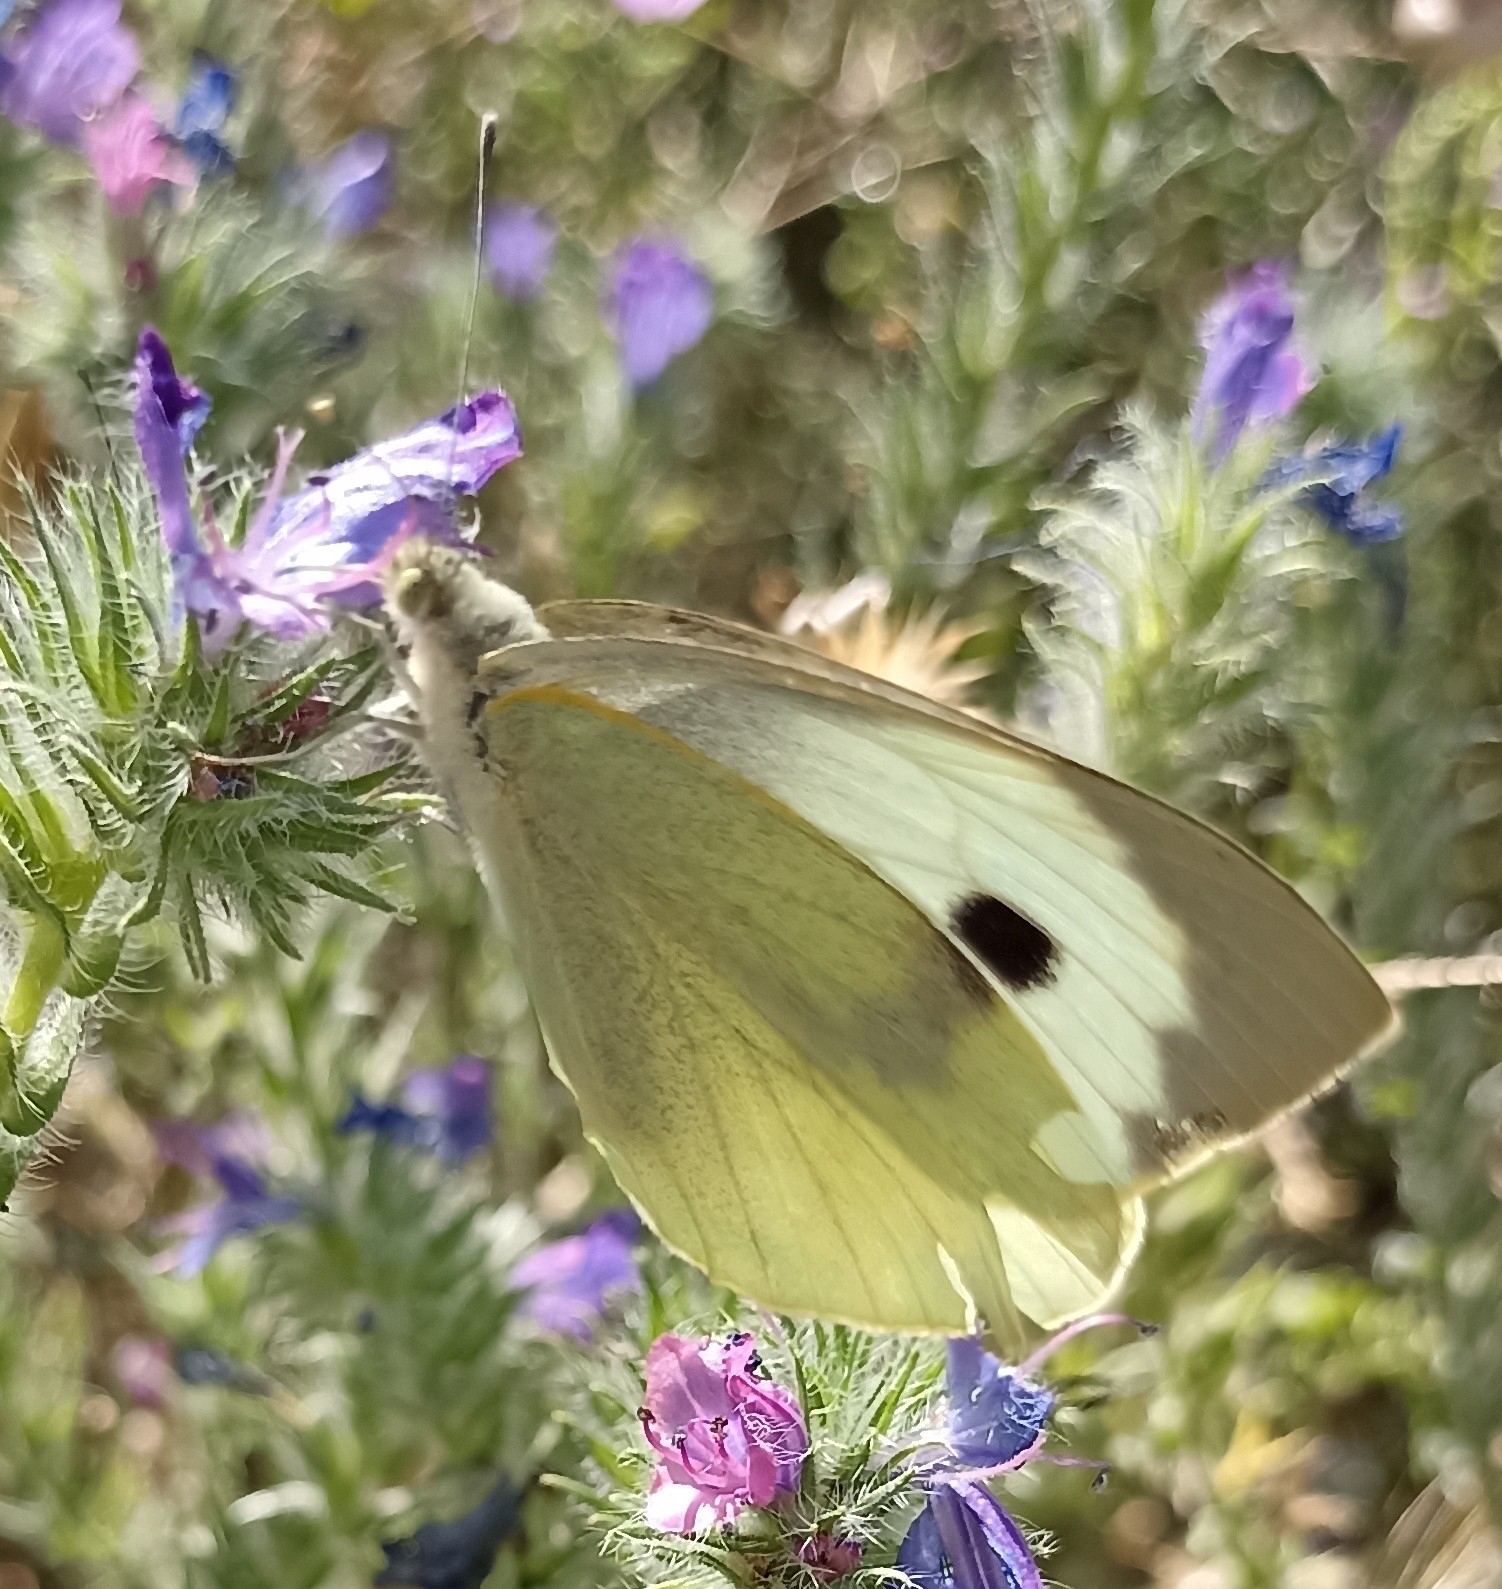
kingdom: Animalia
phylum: Arthropoda
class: Insecta
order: Lepidoptera
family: Pieridae
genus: Pieris
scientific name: Pieris brassicae
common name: Large white
